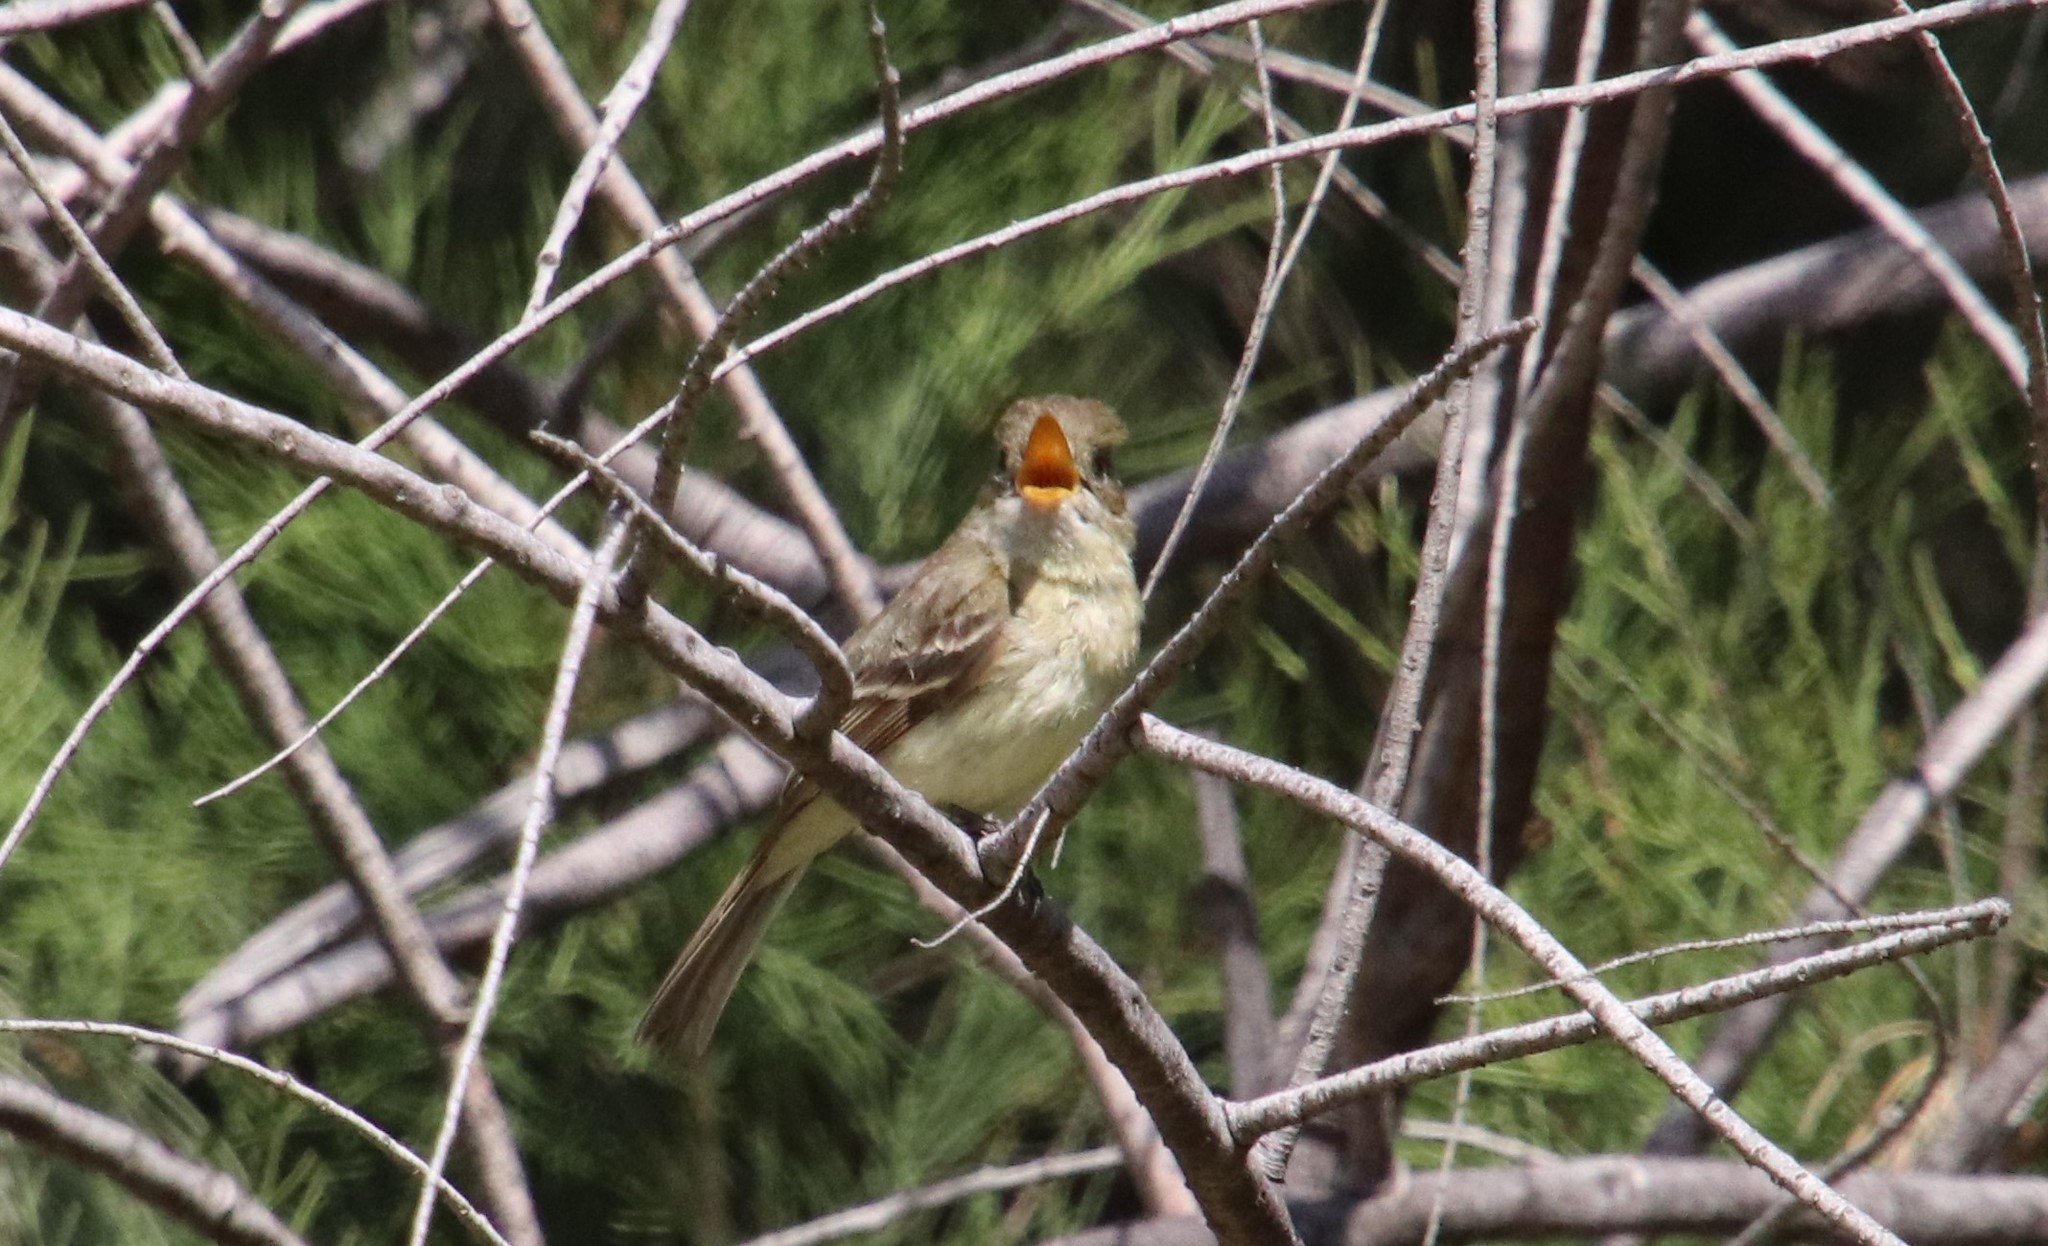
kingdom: Animalia
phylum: Chordata
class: Aves
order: Passeriformes
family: Tyrannidae
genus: Empidonax
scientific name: Empidonax difficilis
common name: Pacific-slope flycatcher
